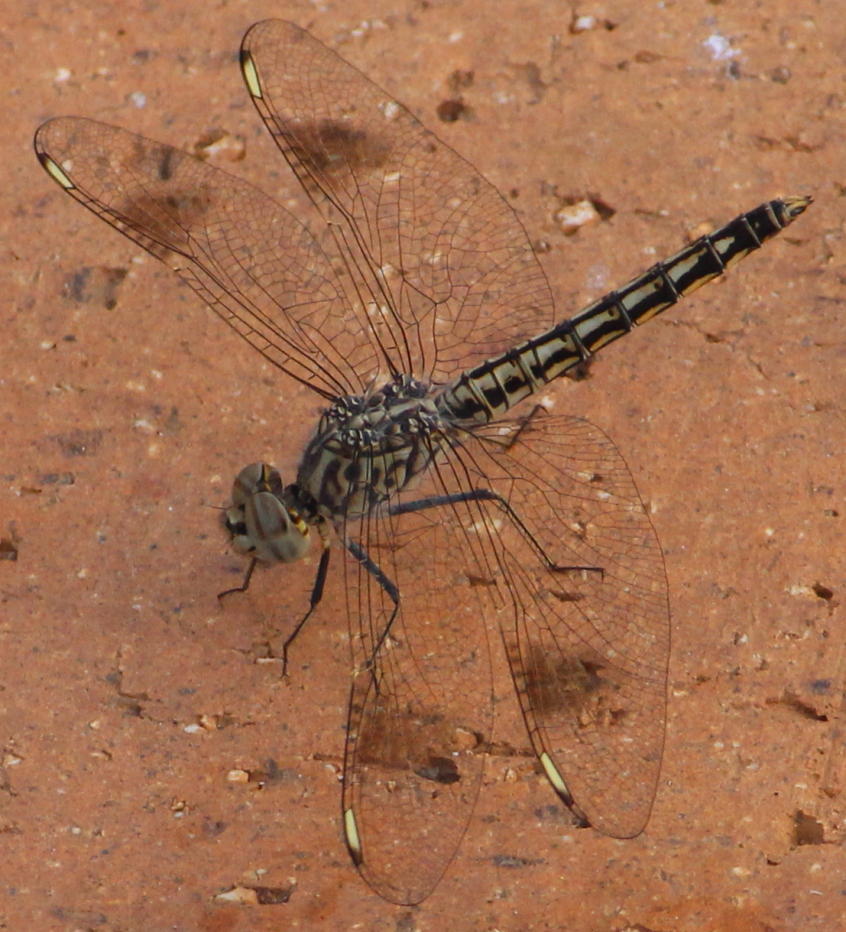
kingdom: Animalia
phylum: Arthropoda
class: Insecta
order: Odonata
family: Libellulidae
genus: Brachythemis
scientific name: Brachythemis leucosticta
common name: Banded groundling
